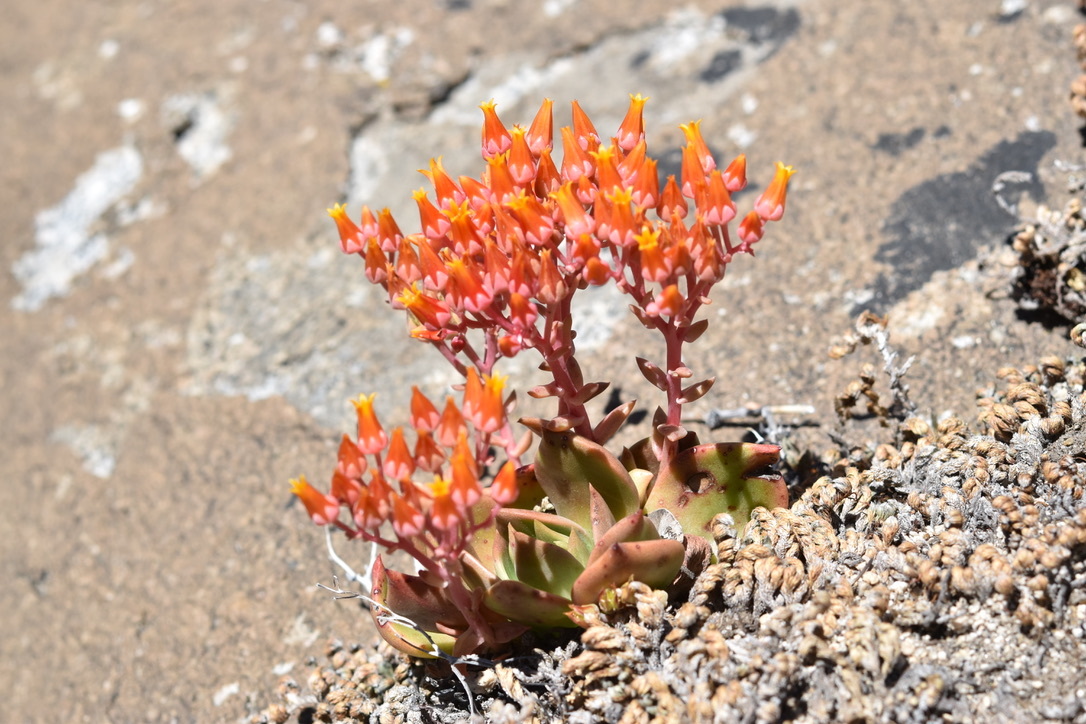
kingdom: Plantae
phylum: Tracheophyta
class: Magnoliopsida
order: Saxifragales
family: Crassulaceae
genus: Dudleya
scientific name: Dudleya cymosa
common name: Canyon dudleya
